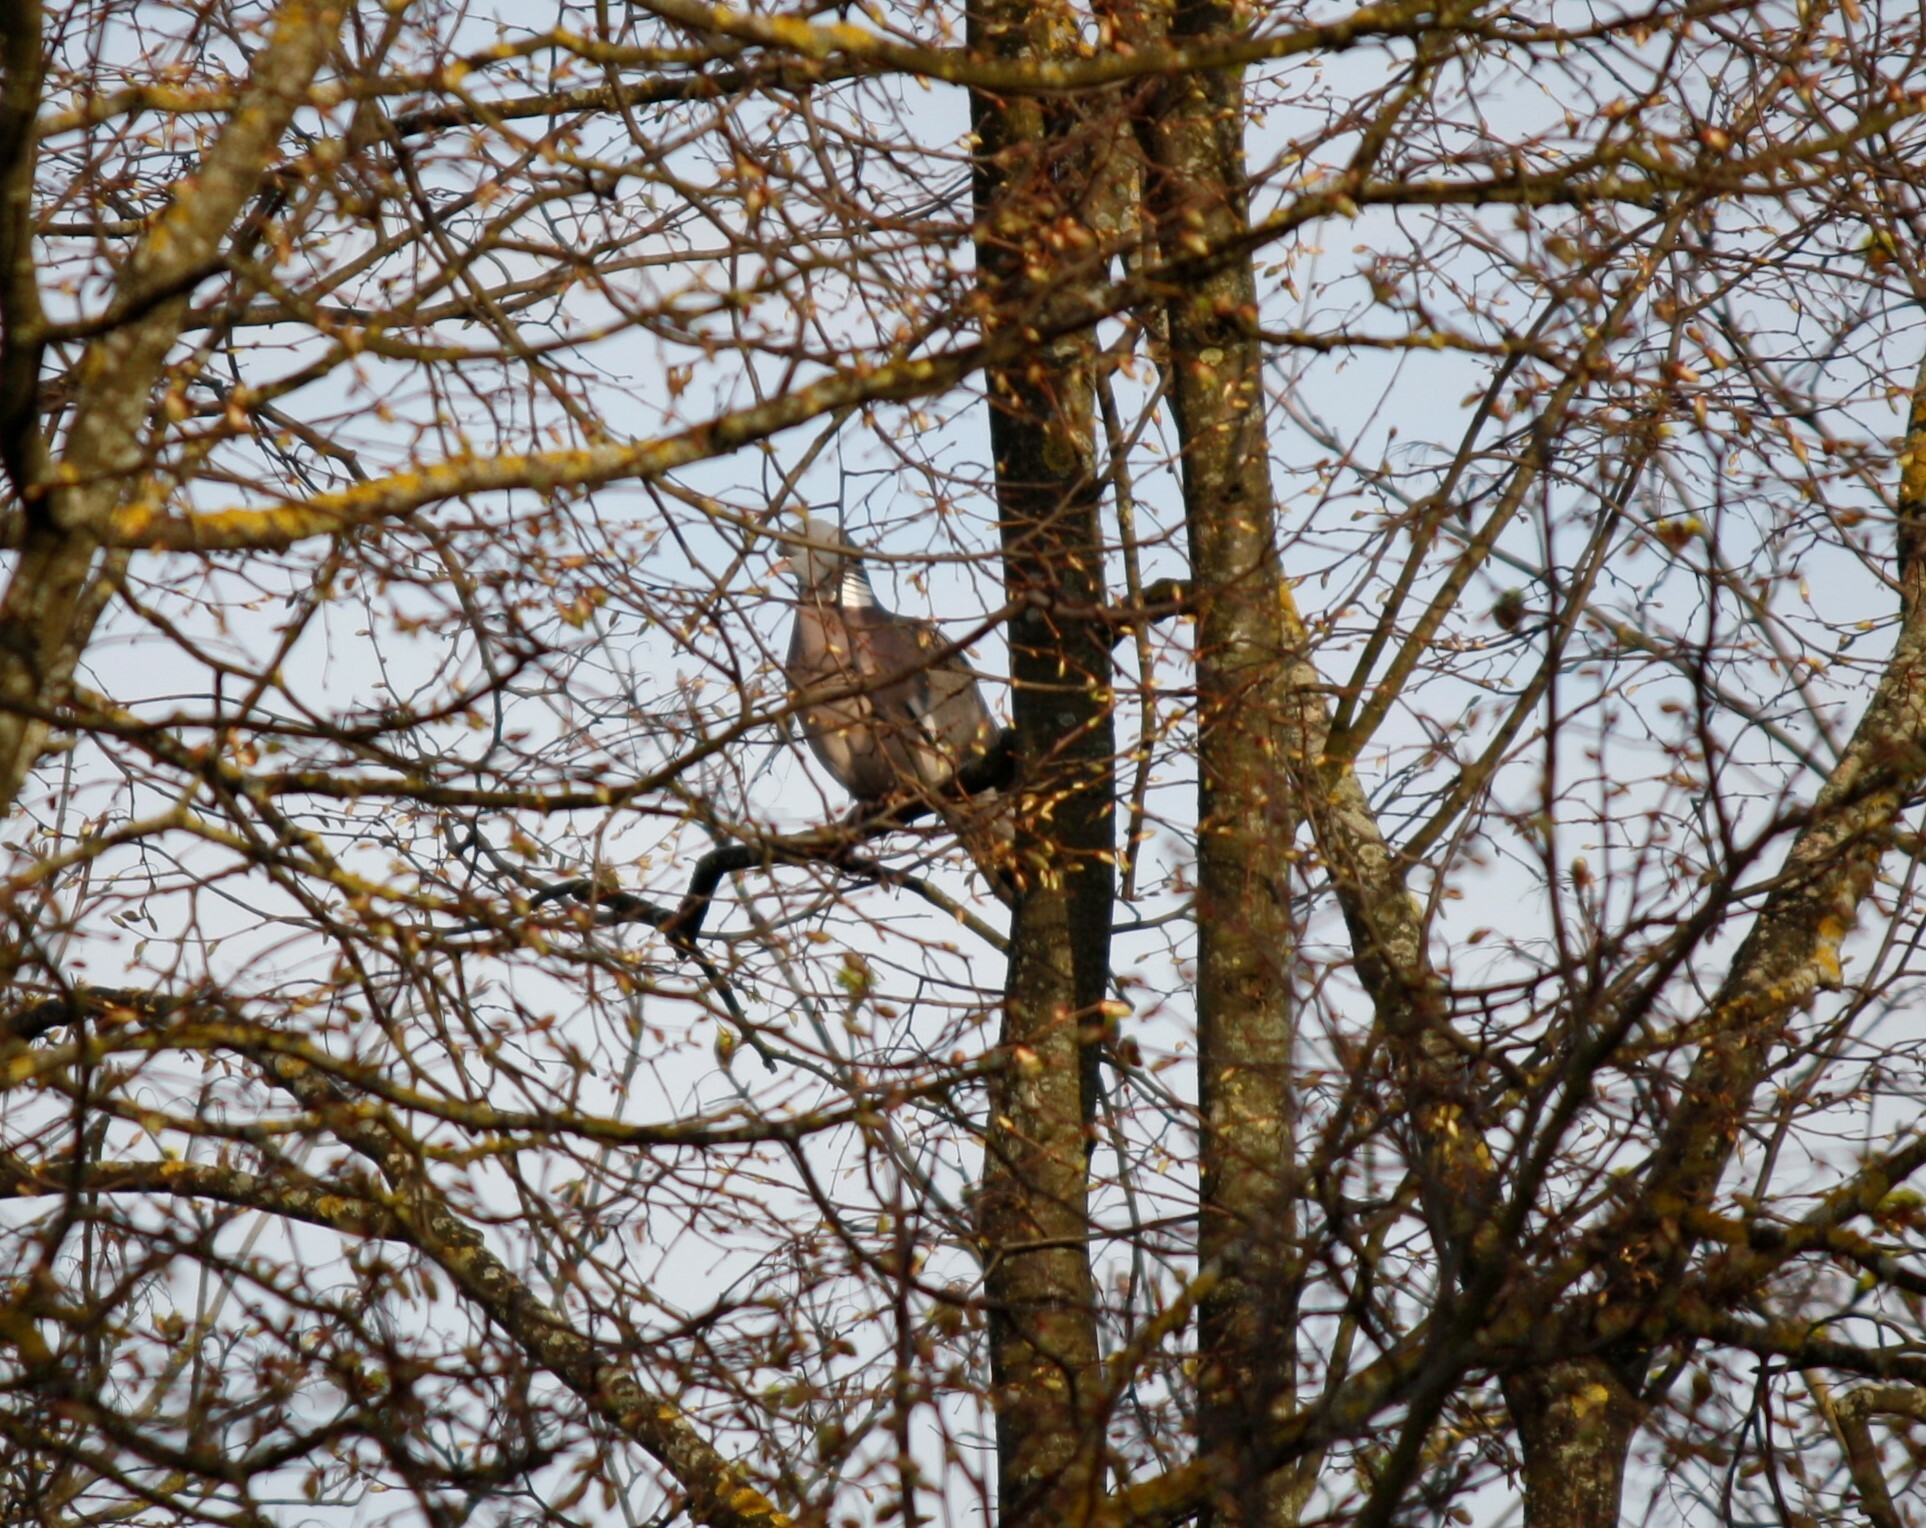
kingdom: Animalia
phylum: Chordata
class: Aves
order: Columbiformes
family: Columbidae
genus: Columba
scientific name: Columba palumbus
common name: Common wood pigeon
